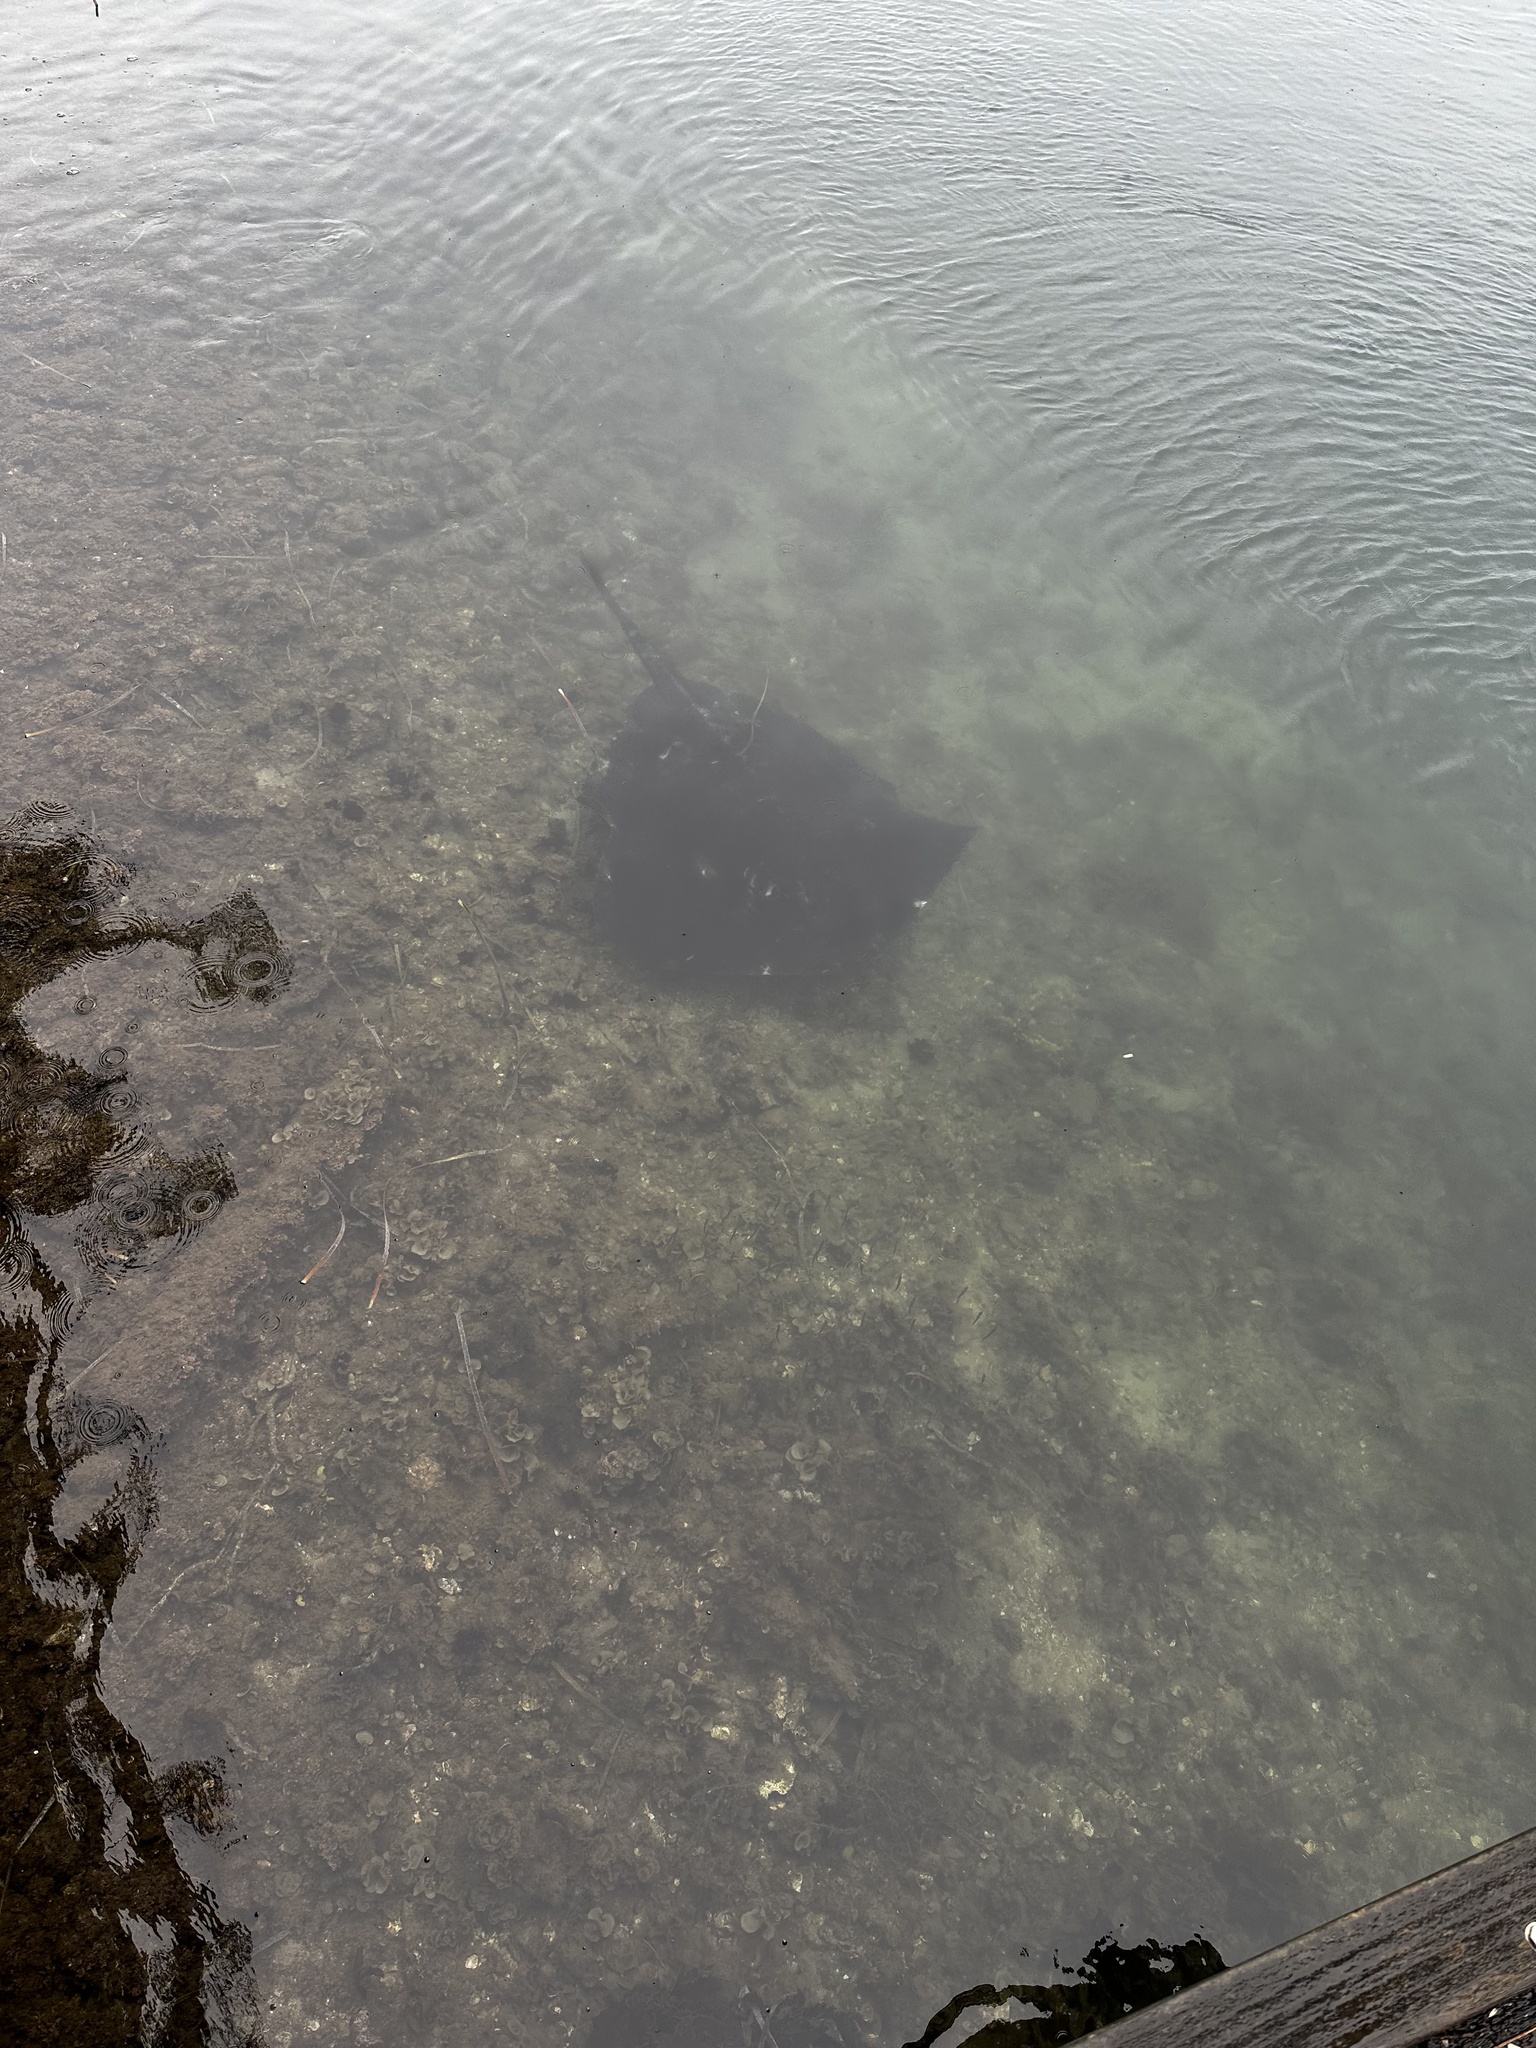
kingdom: Animalia
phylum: Chordata
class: Elasmobranchii
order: Myliobatiformes
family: Dasyatidae
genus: Bathytoshia
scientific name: Bathytoshia brevicaudata
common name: Short-tail stingray
